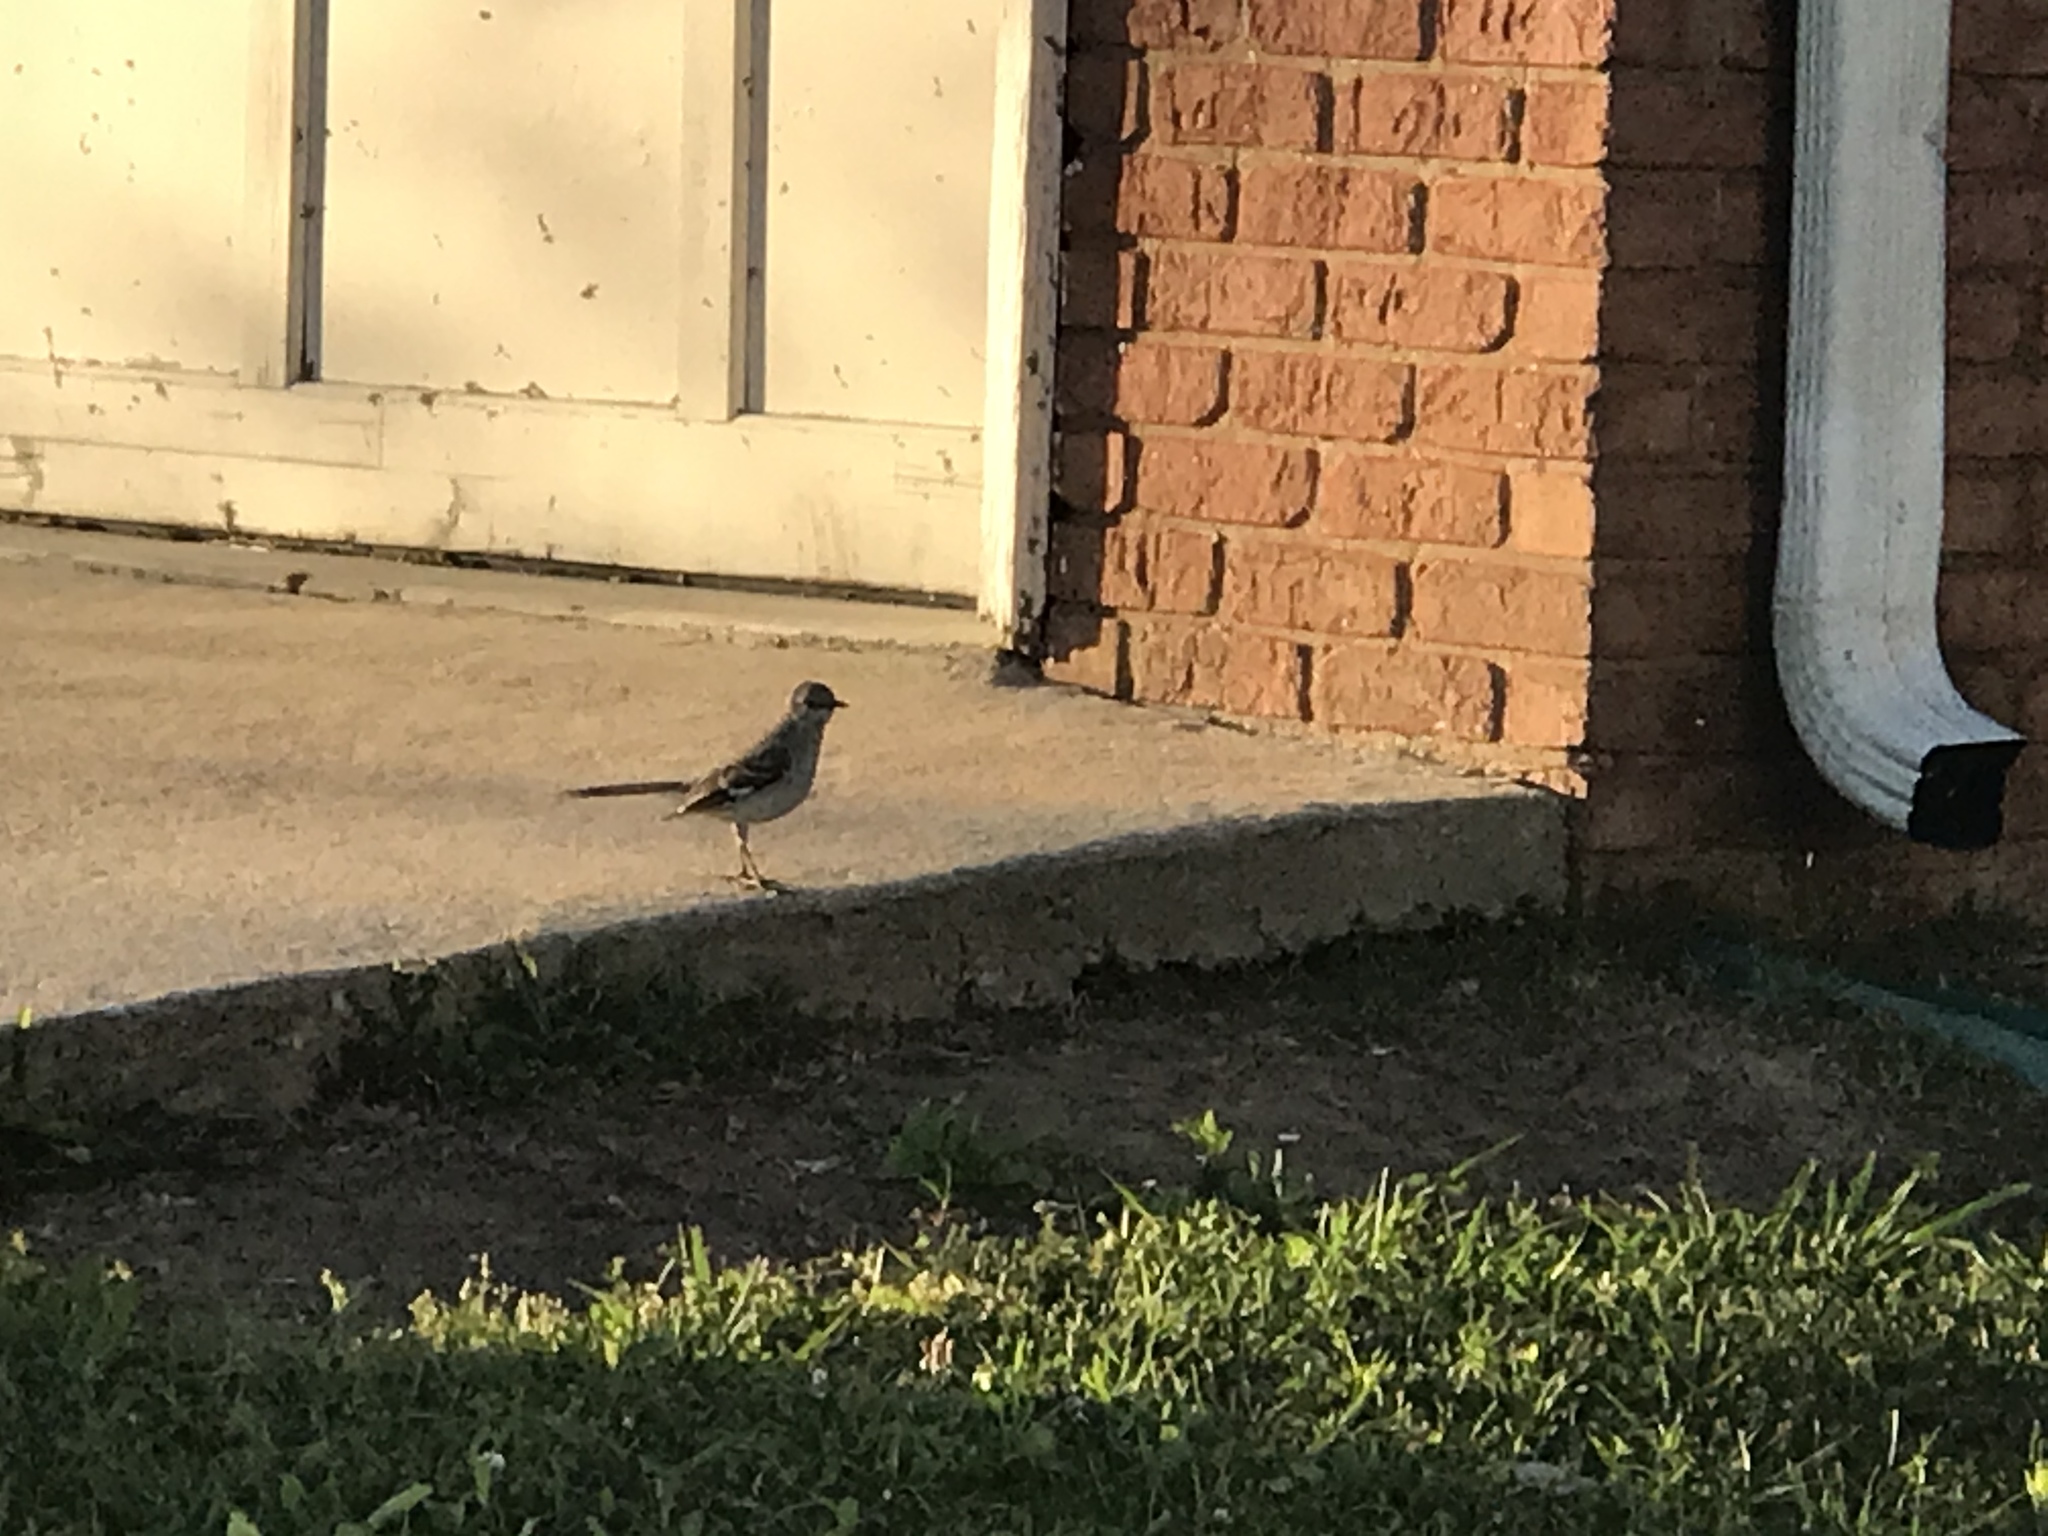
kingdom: Animalia
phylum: Chordata
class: Aves
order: Passeriformes
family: Mimidae
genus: Mimus
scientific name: Mimus polyglottos
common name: Northern mockingbird
